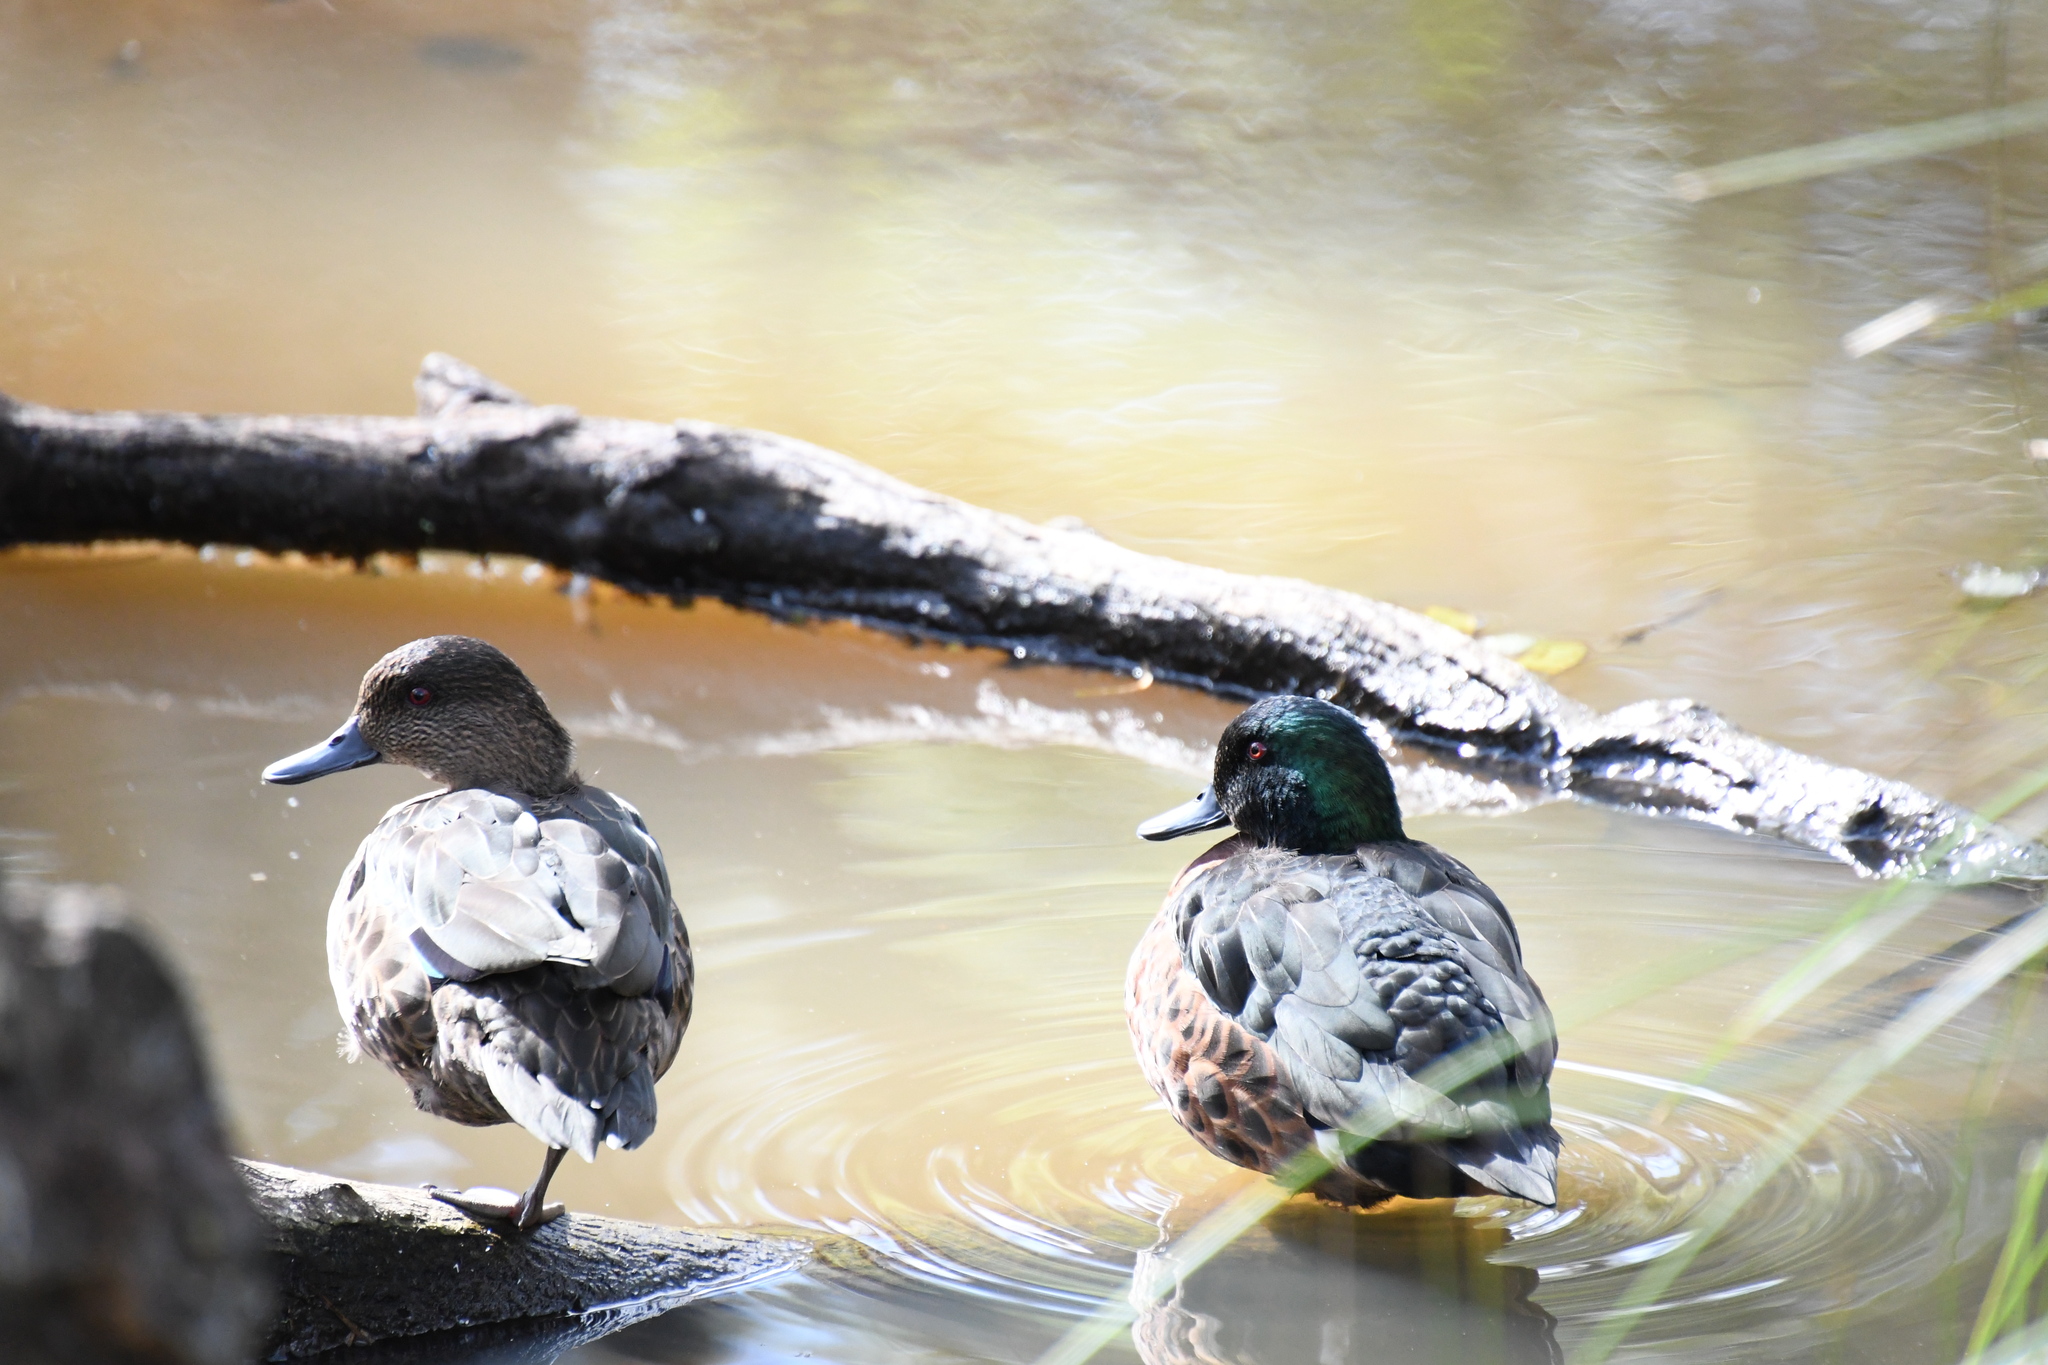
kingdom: Animalia
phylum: Chordata
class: Aves
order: Anseriformes
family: Anatidae
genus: Anas
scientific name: Anas castanea
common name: Chestnut teal
